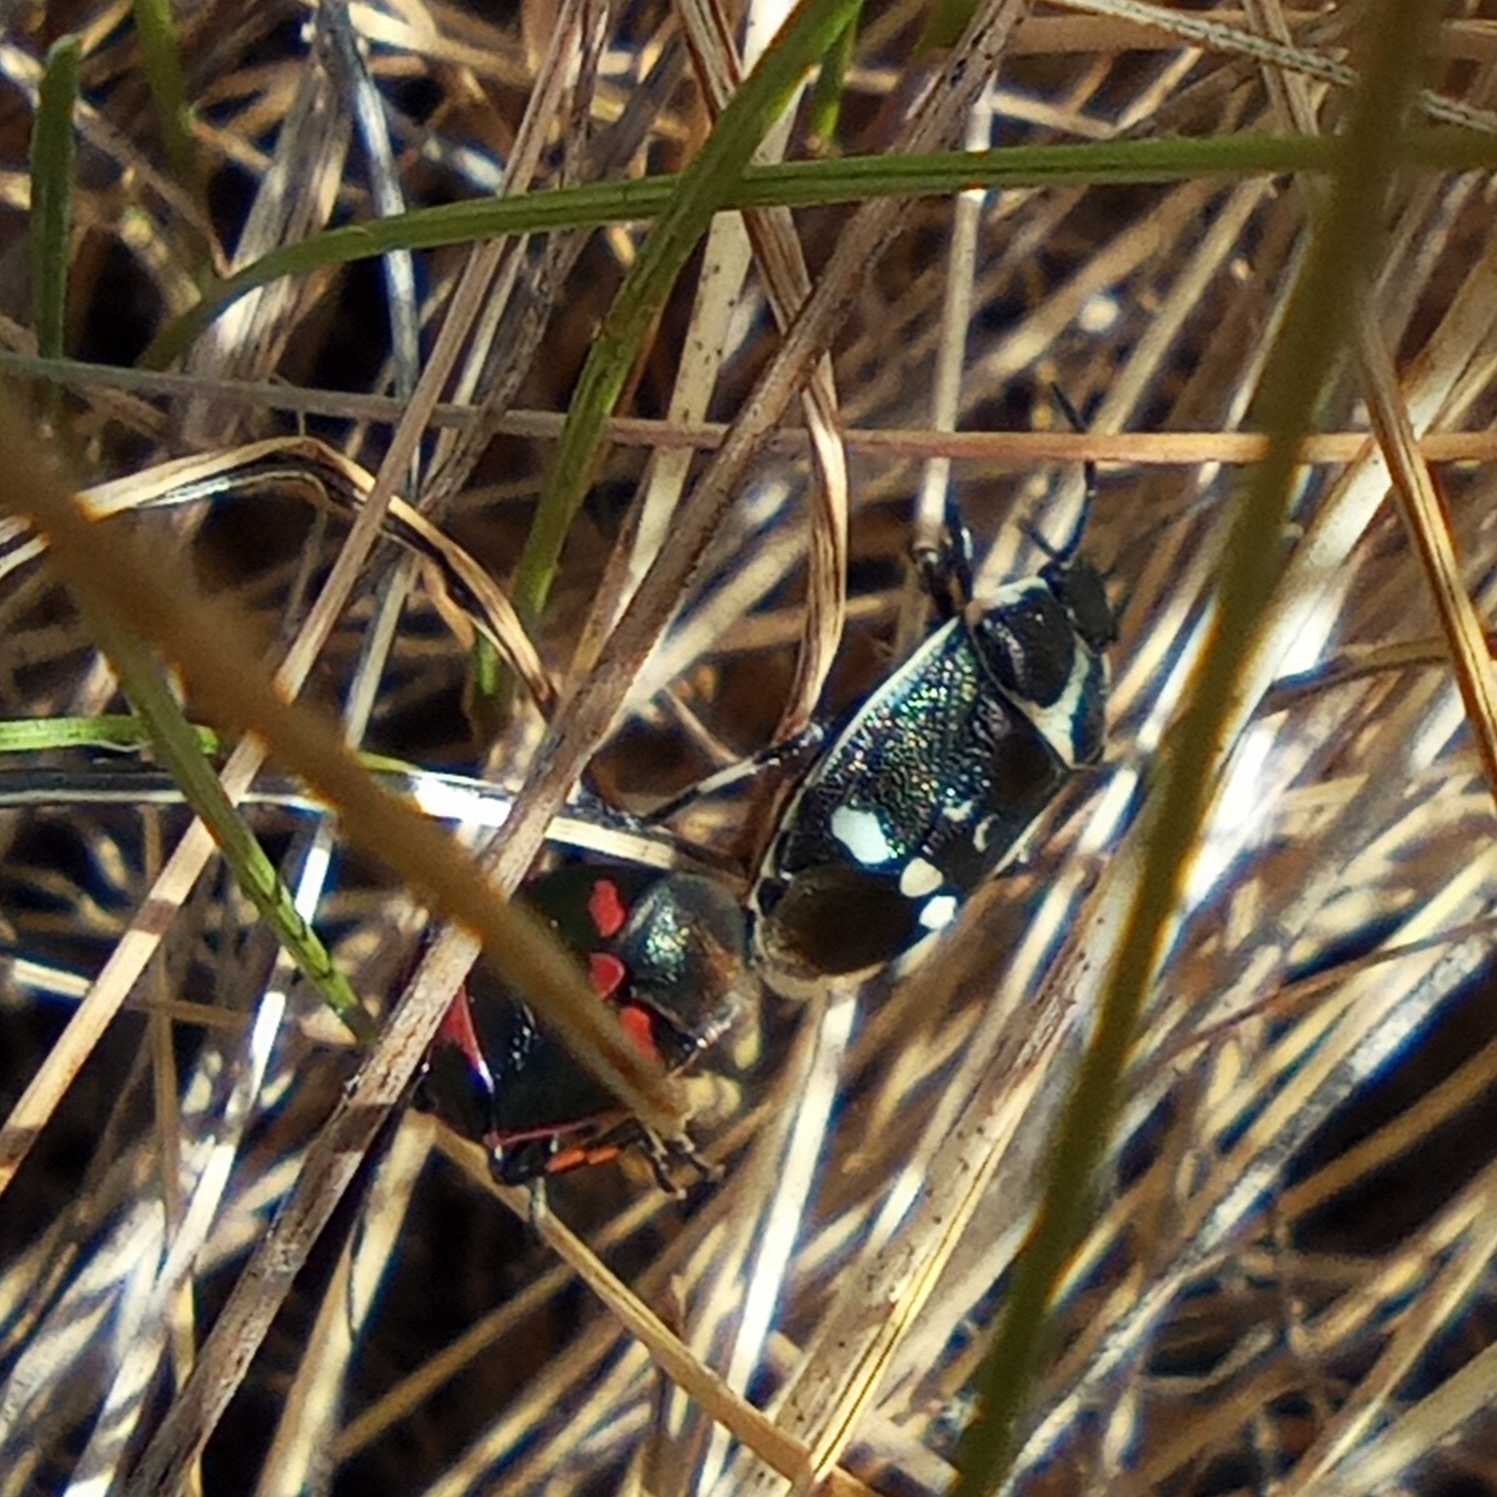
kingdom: Animalia
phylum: Arthropoda
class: Insecta
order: Hemiptera
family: Pentatomidae
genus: Eurydema
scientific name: Eurydema oleracea
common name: Cabbage bug
